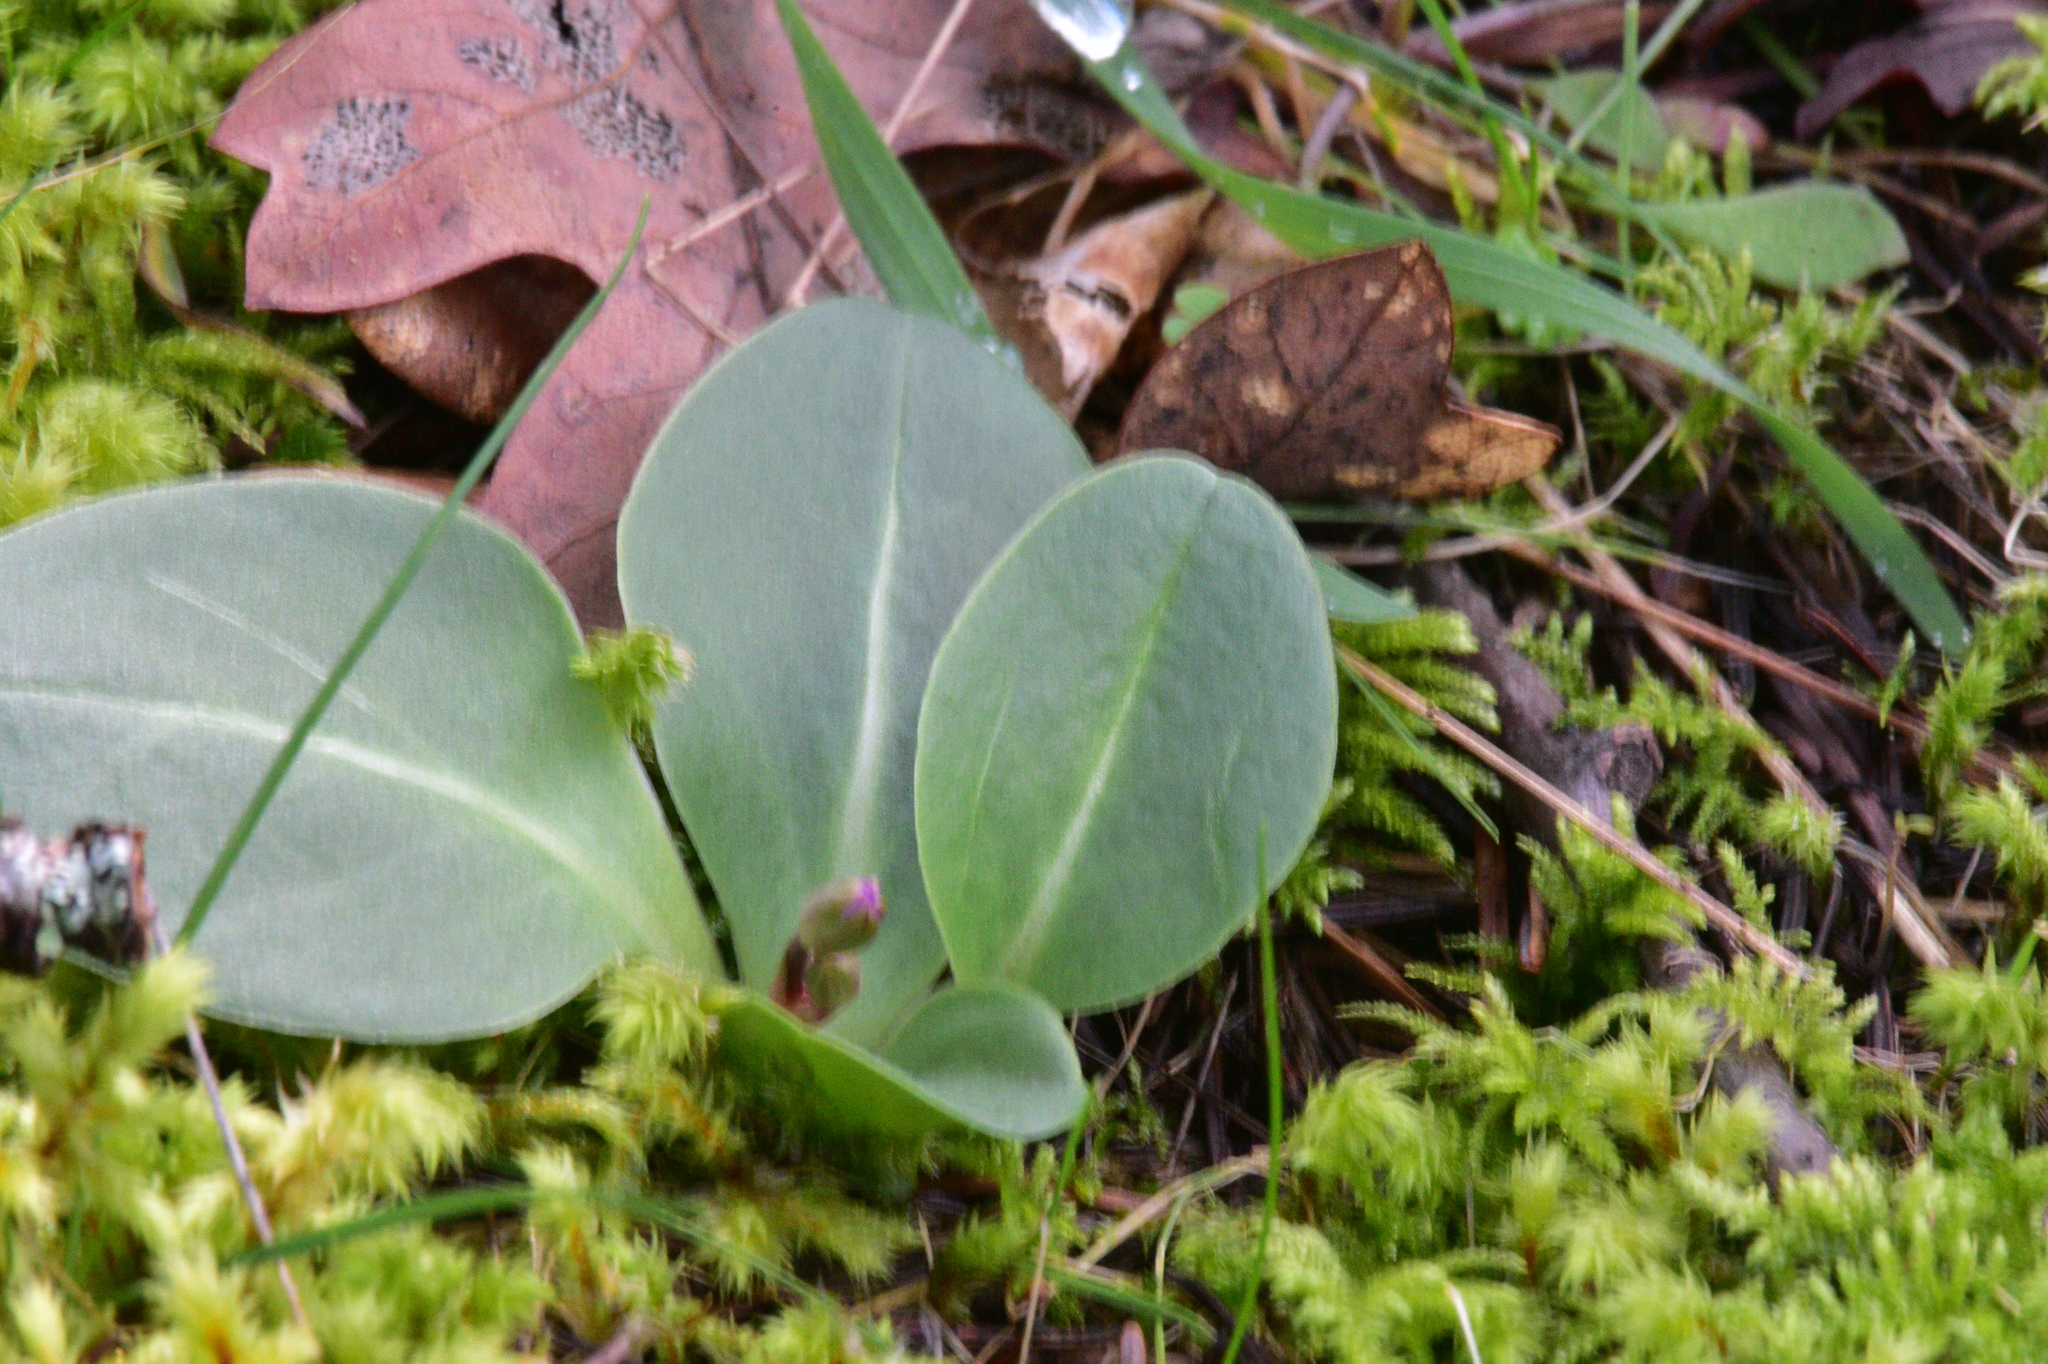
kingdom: Plantae
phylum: Tracheophyta
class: Magnoliopsida
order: Ericales
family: Primulaceae
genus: Dodecatheon
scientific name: Dodecatheon hendersonii
